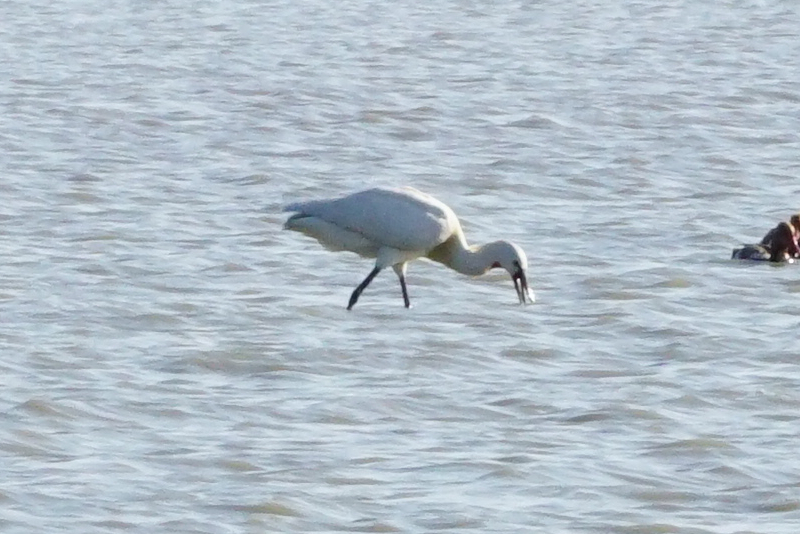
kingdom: Animalia
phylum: Chordata
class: Aves
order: Pelecaniformes
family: Threskiornithidae
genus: Platalea
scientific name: Platalea leucorodia
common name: Eurasian spoonbill
